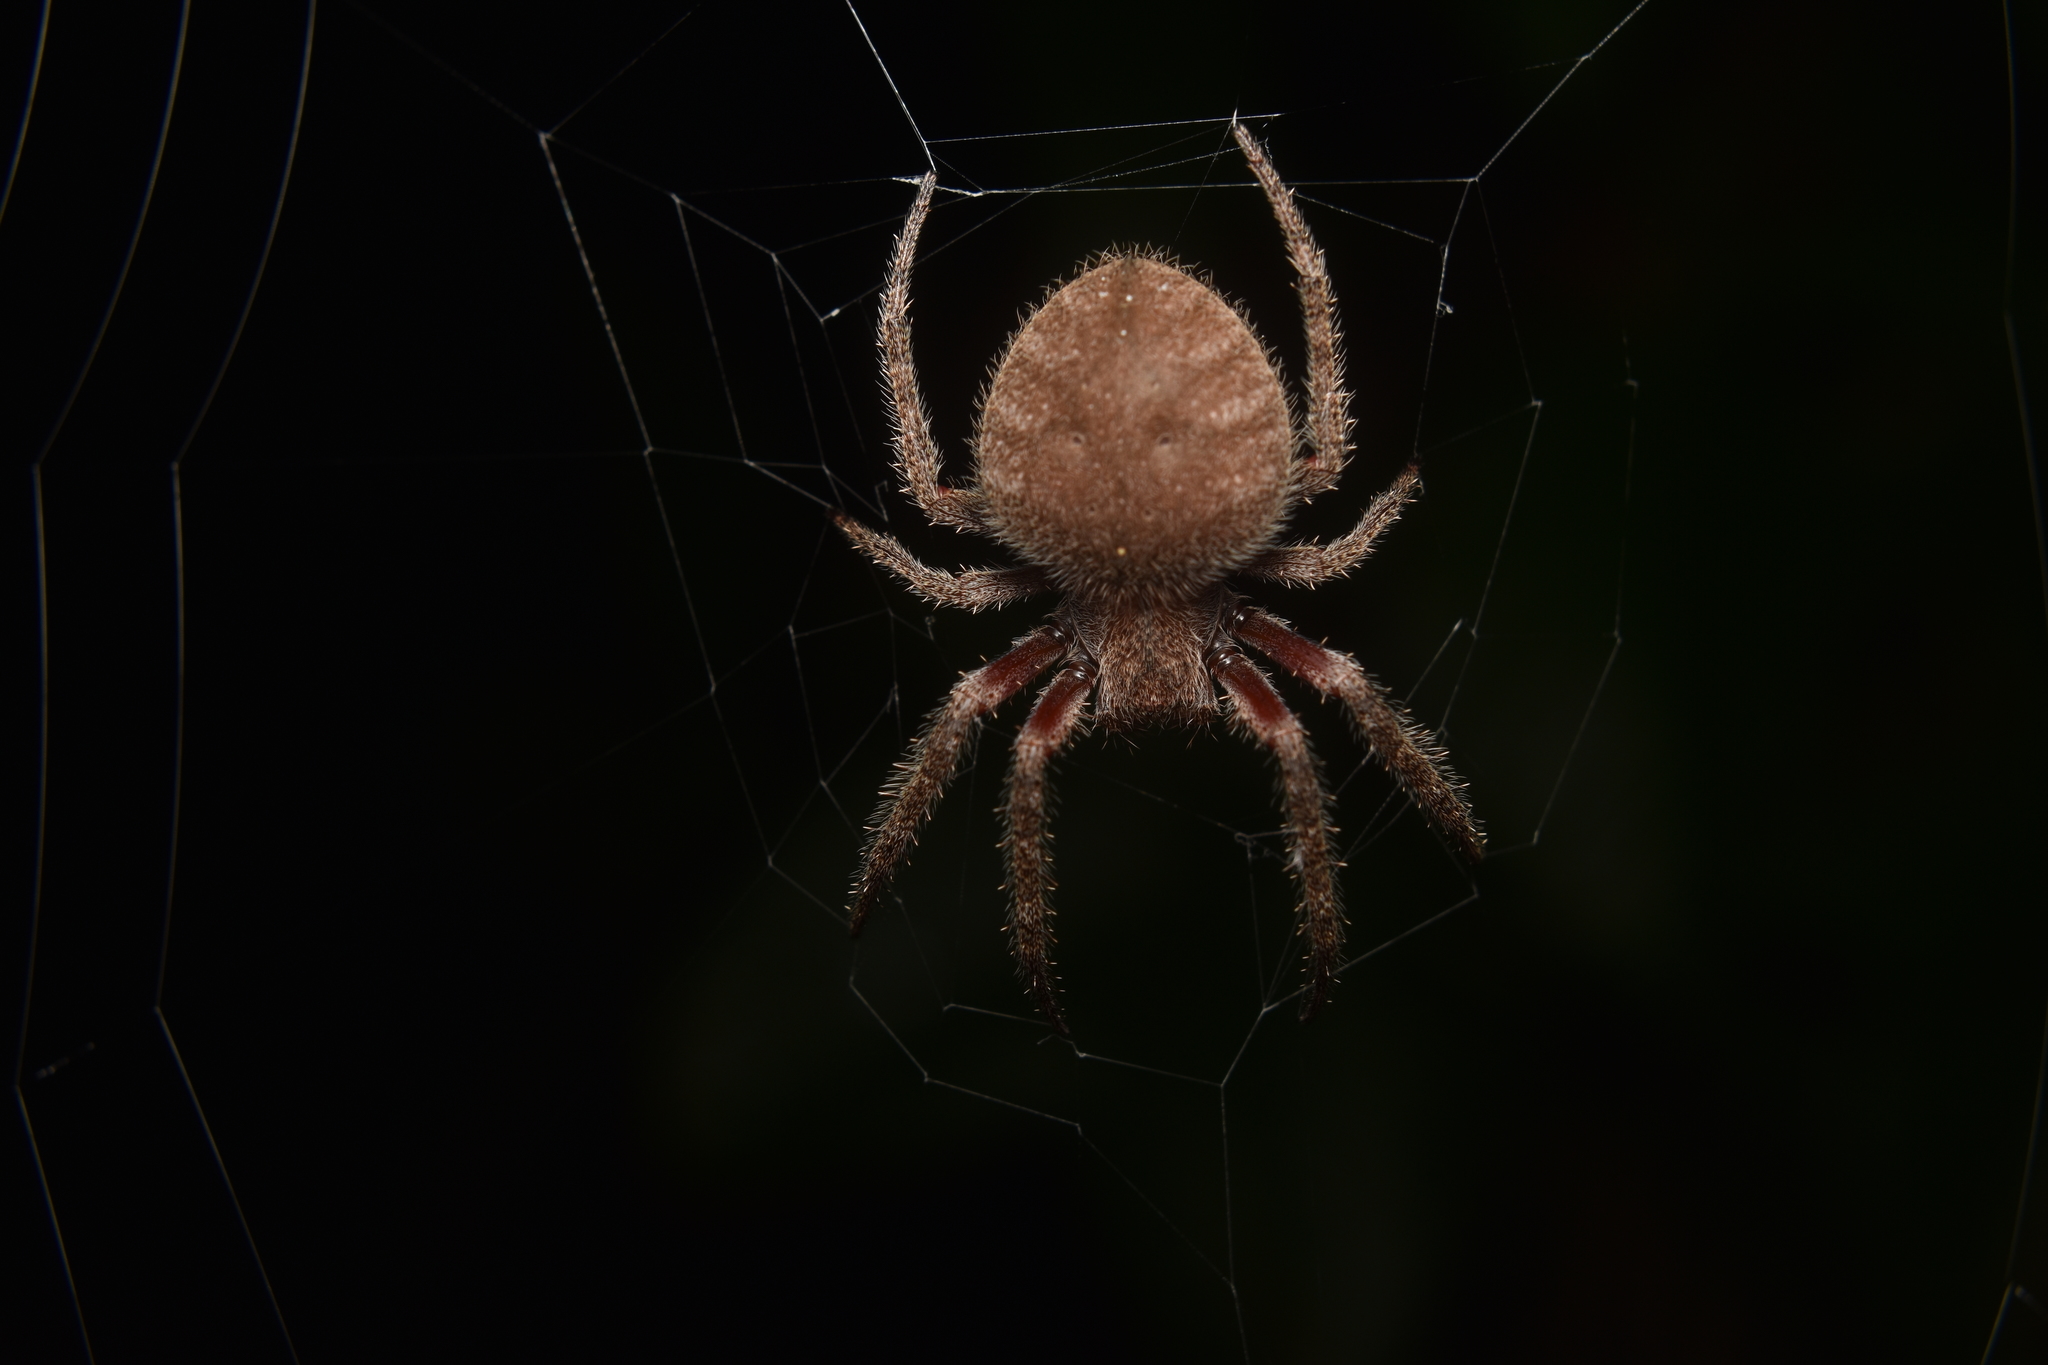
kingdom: Animalia
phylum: Arthropoda
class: Arachnida
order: Araneae
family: Araneidae
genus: Eriophora
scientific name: Eriophora edax
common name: Orb weavers
